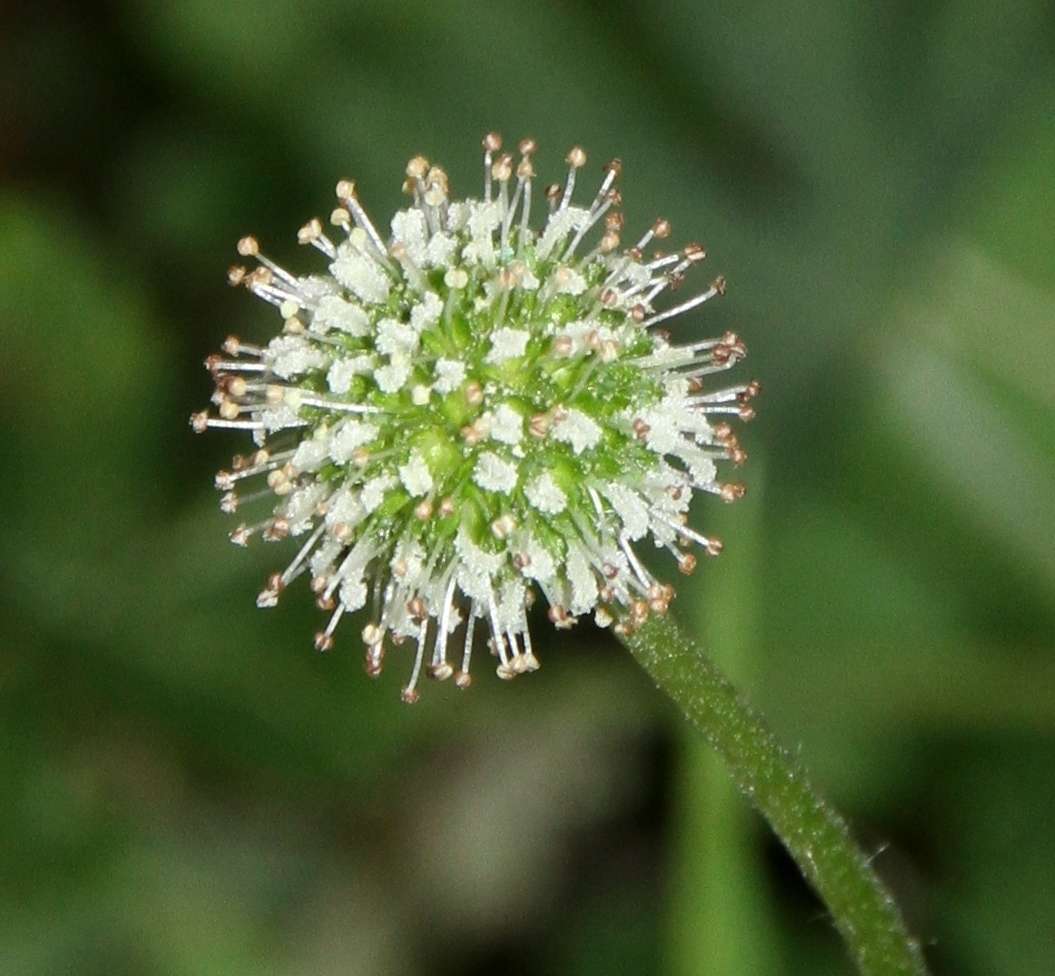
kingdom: Plantae
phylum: Tracheophyta
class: Magnoliopsida
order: Rosales
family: Rosaceae
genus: Acaena
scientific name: Acaena novae-zelandiae
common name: Pirri-pirri-bur
